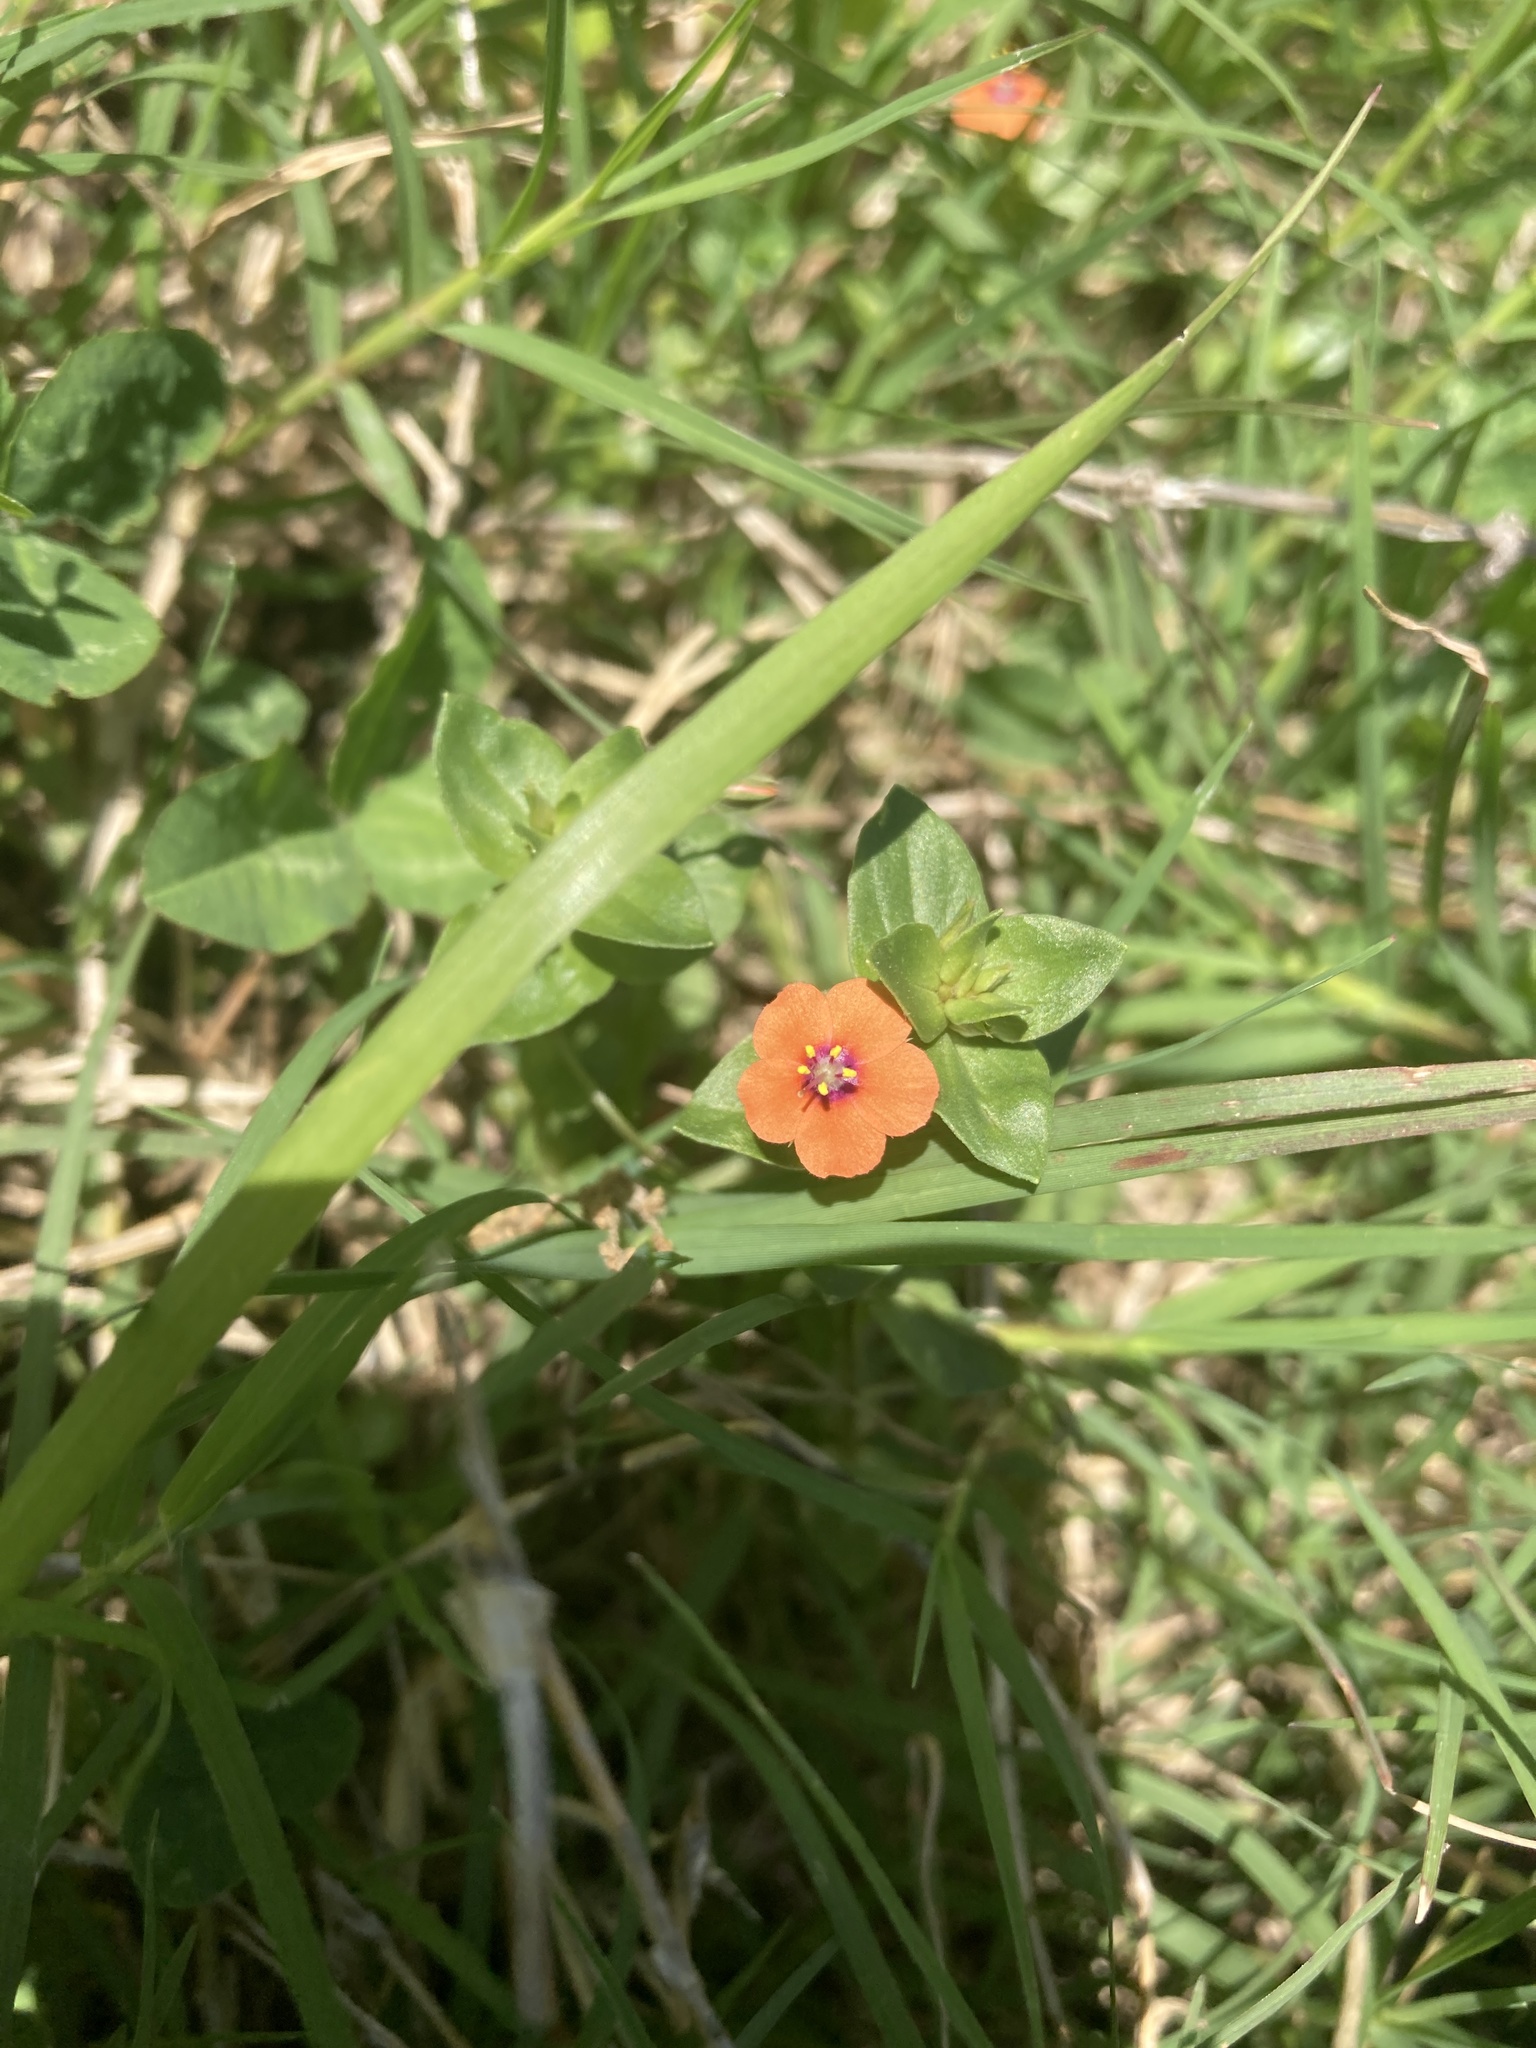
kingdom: Plantae
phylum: Tracheophyta
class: Magnoliopsida
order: Ericales
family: Primulaceae
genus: Lysimachia
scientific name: Lysimachia arvensis
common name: Scarlet pimpernel
